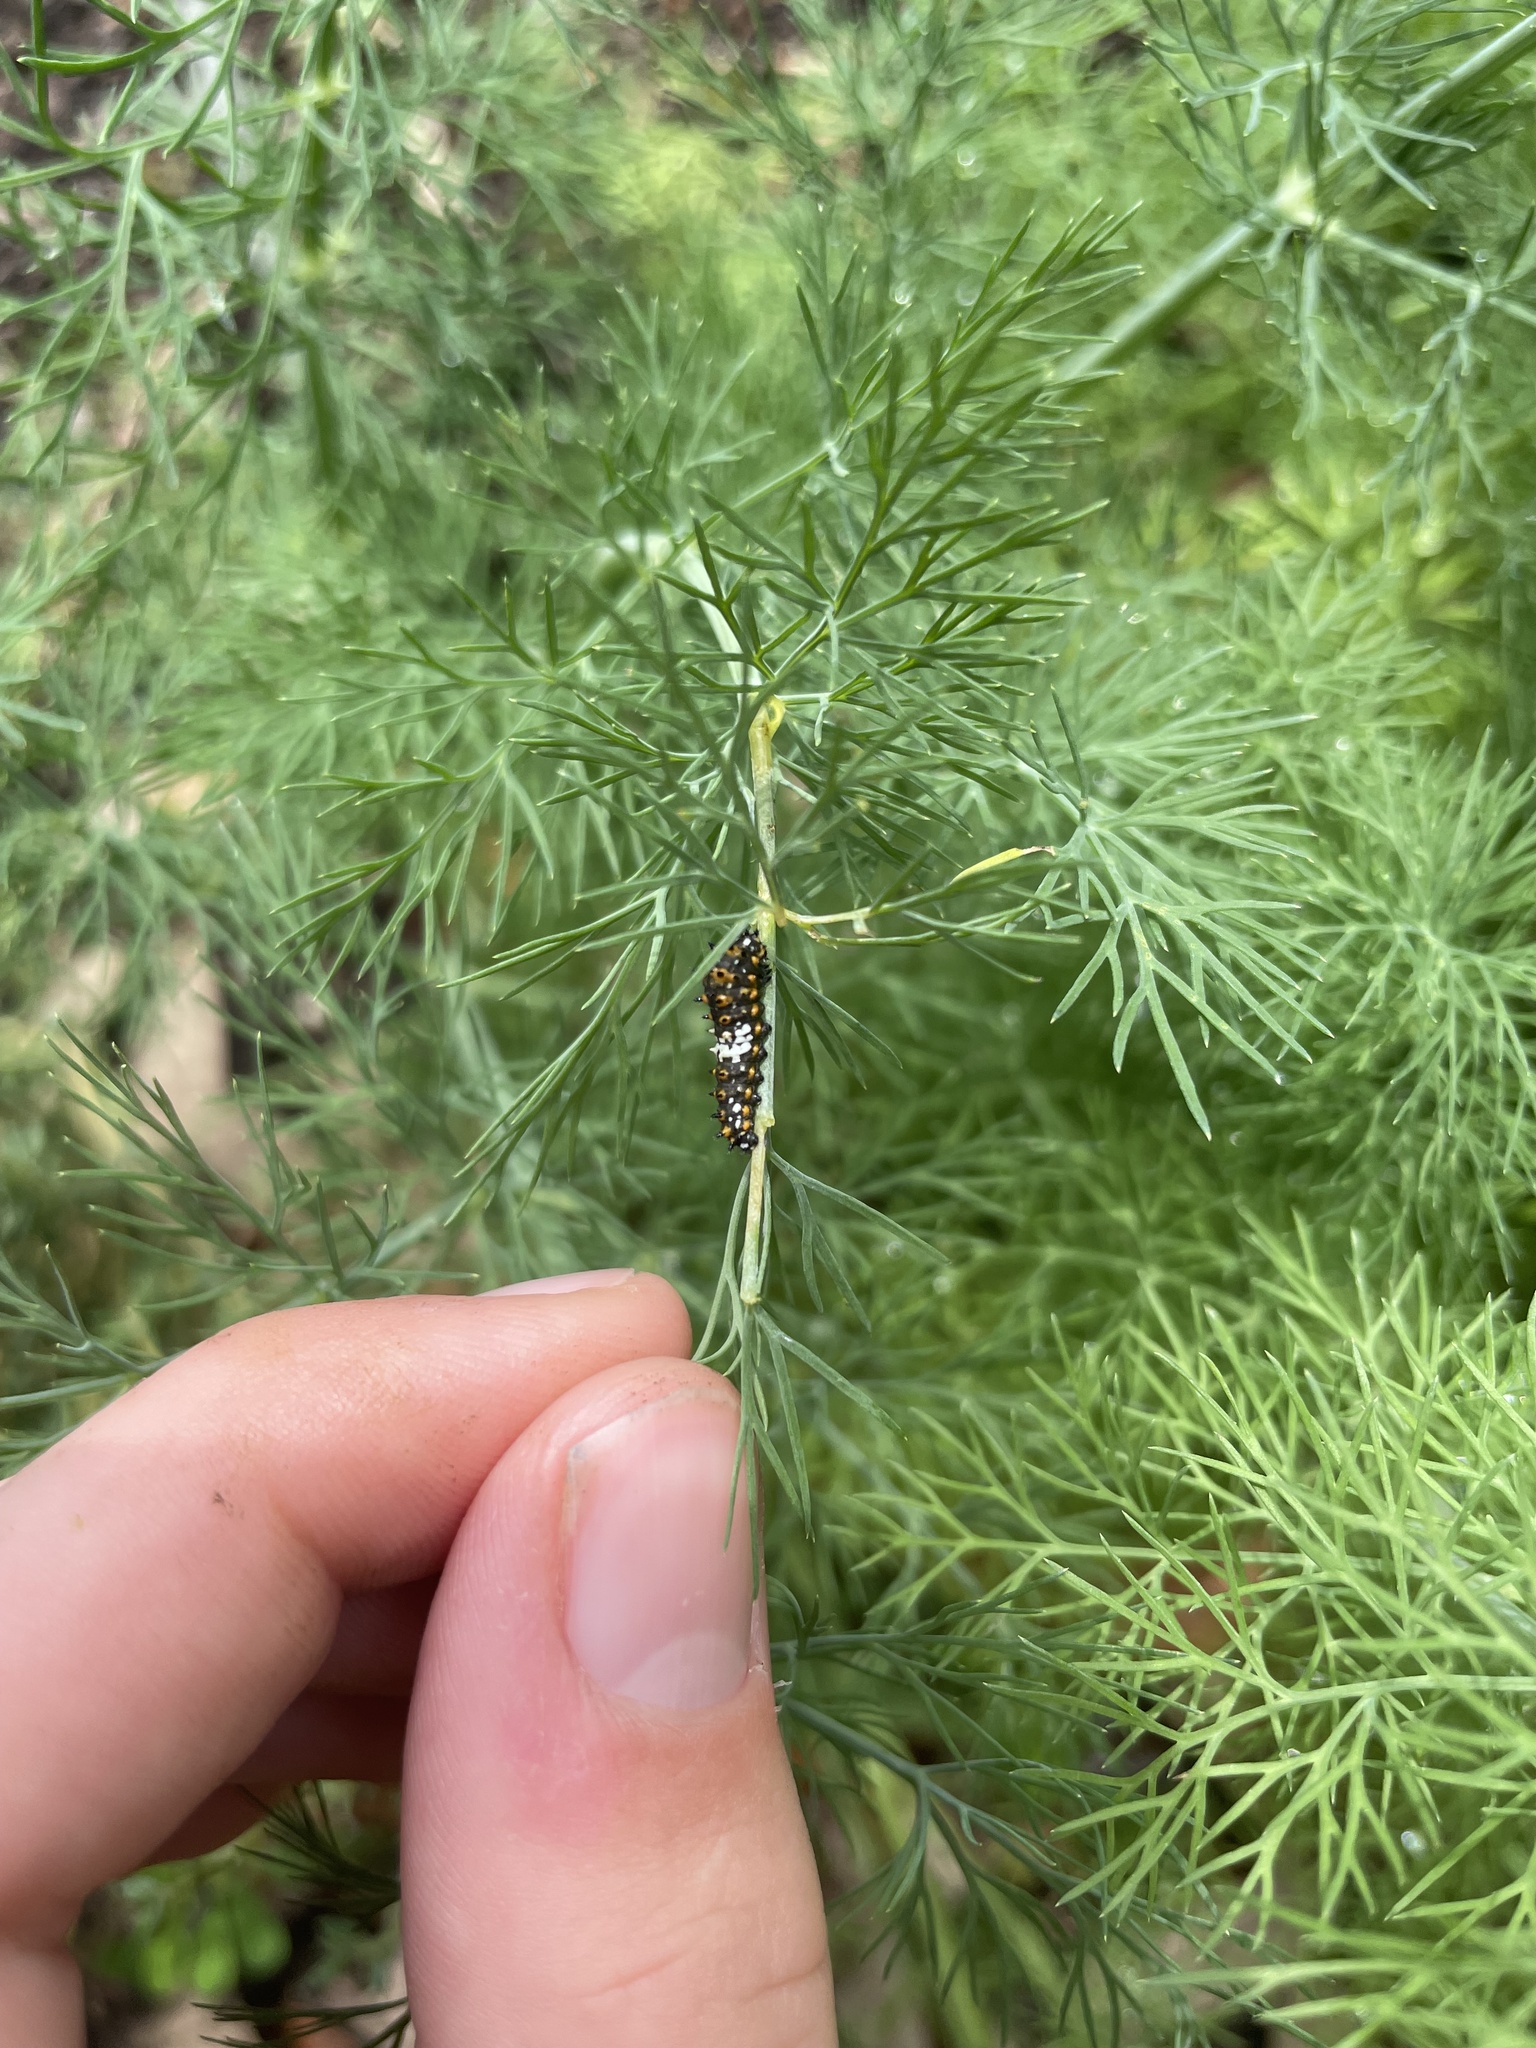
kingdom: Animalia
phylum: Arthropoda
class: Insecta
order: Lepidoptera
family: Papilionidae
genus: Papilio
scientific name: Papilio polyxenes
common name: Black swallowtail
